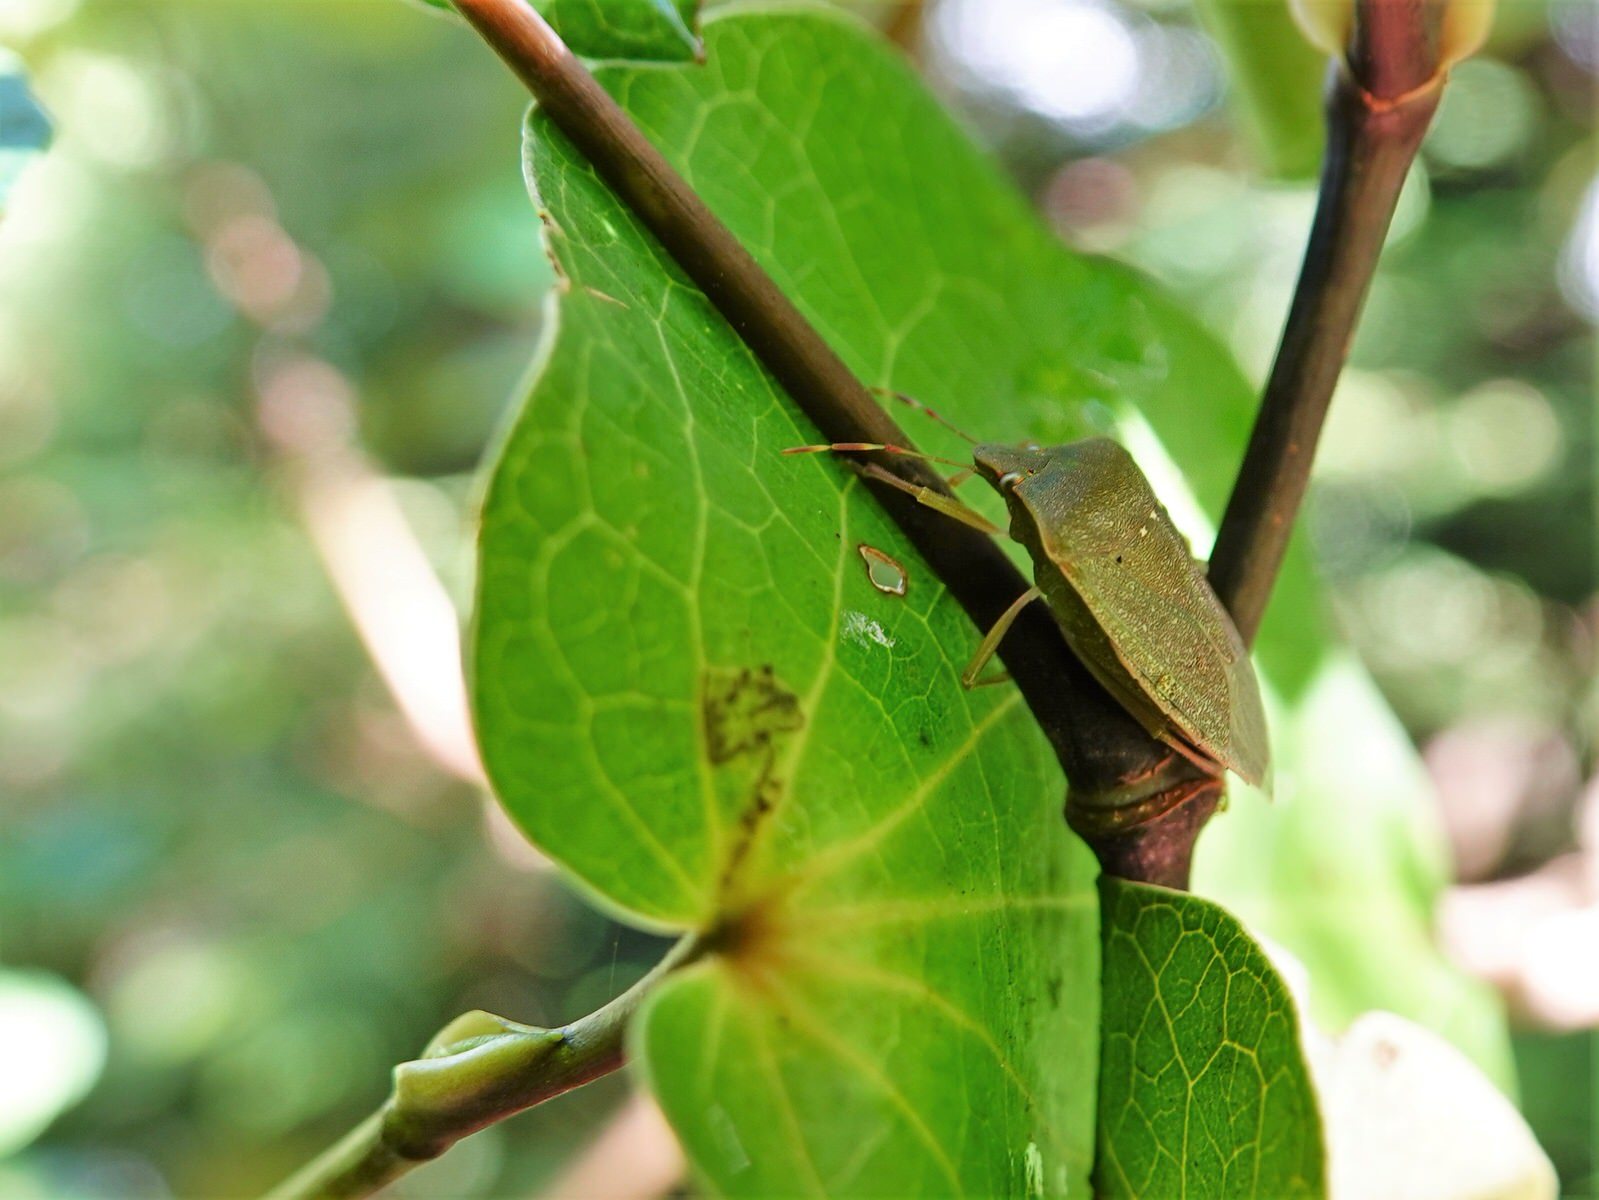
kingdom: Animalia
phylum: Arthropoda
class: Insecta
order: Hemiptera
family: Pentatomidae
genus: Nezara
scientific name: Nezara viridula
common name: Southern green stink bug
